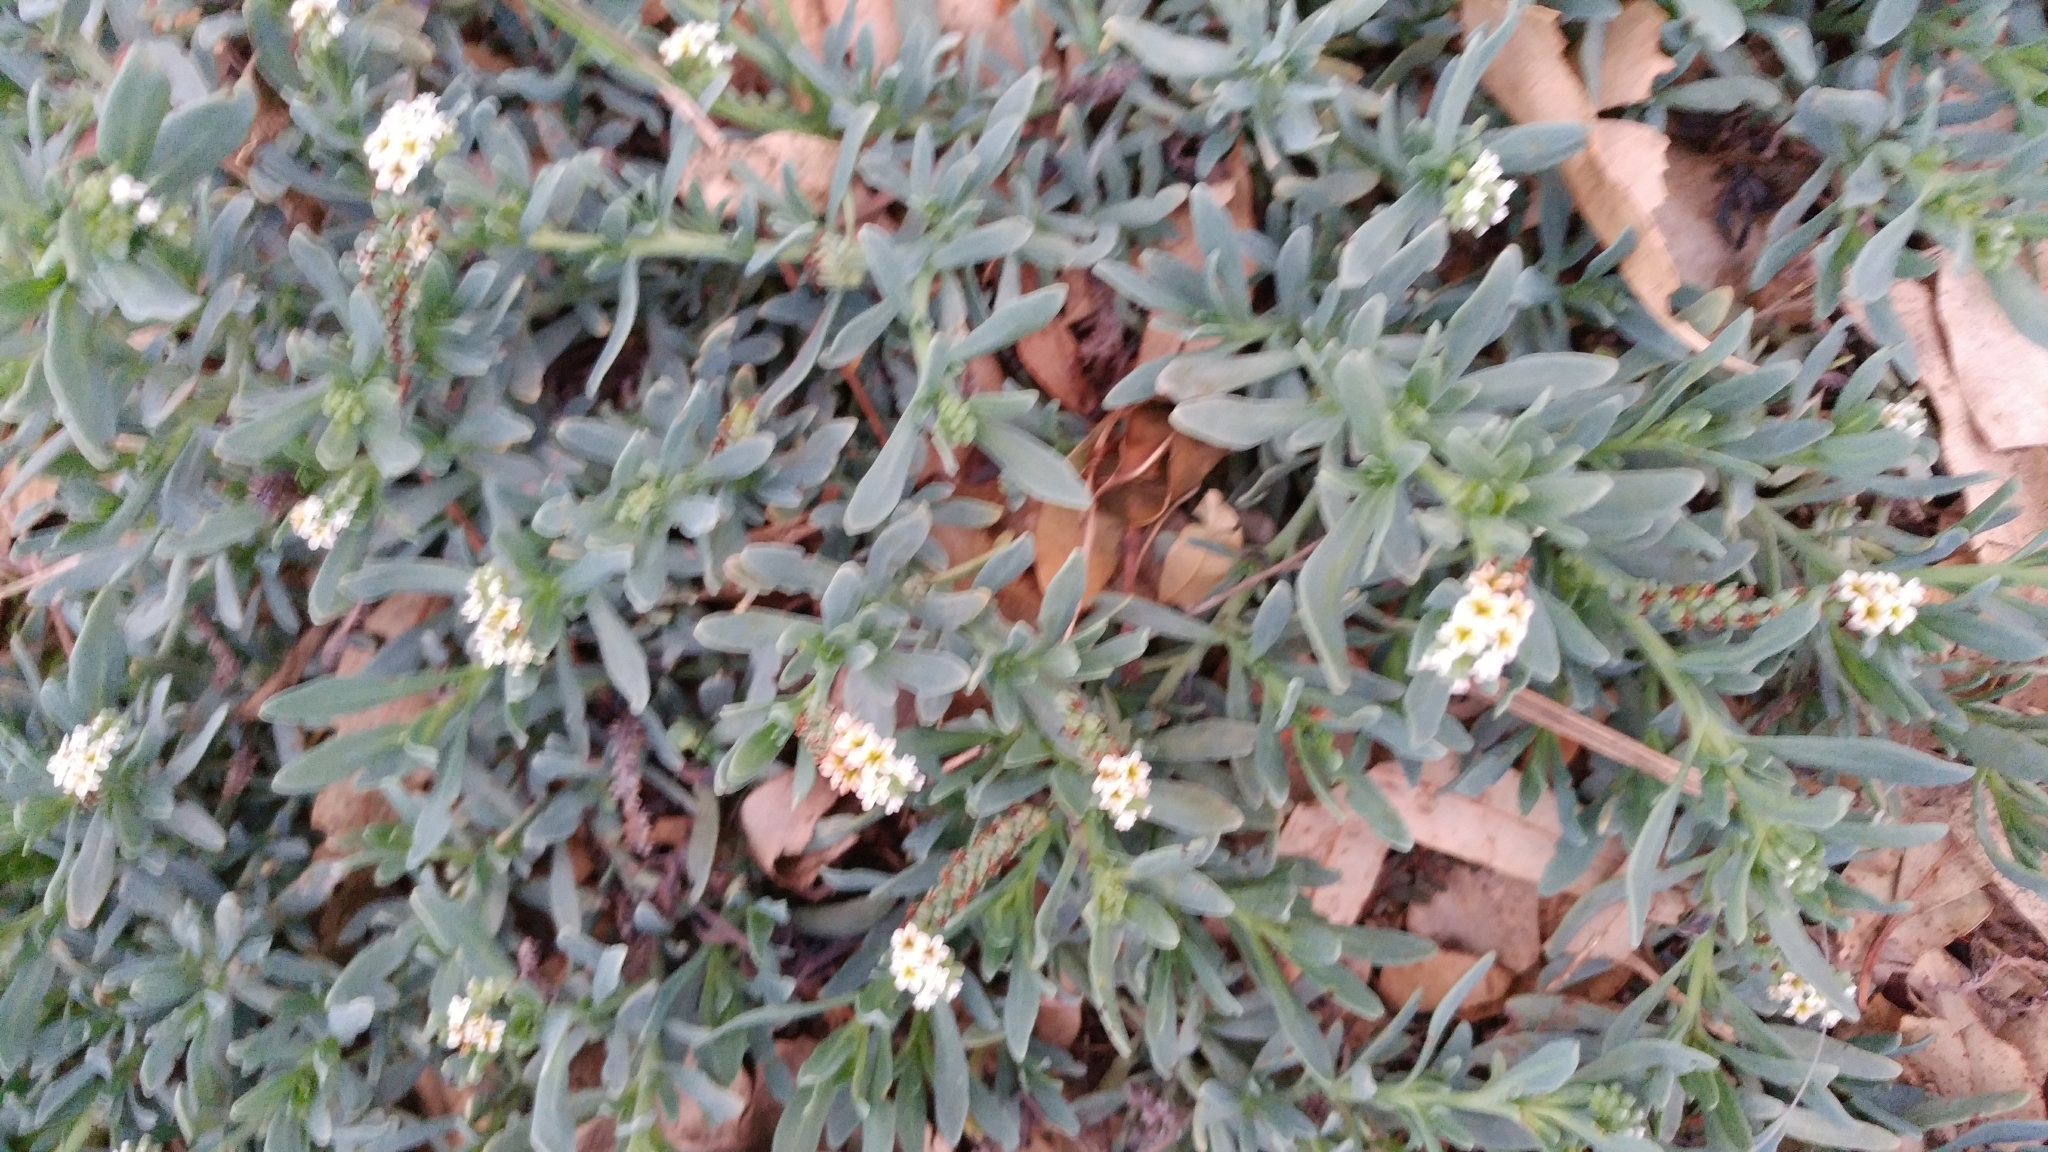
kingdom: Plantae
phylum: Tracheophyta
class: Magnoliopsida
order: Boraginales
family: Heliotropiaceae
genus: Heliotropium
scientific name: Heliotropium curassavicum
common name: Seaside heliotrope
